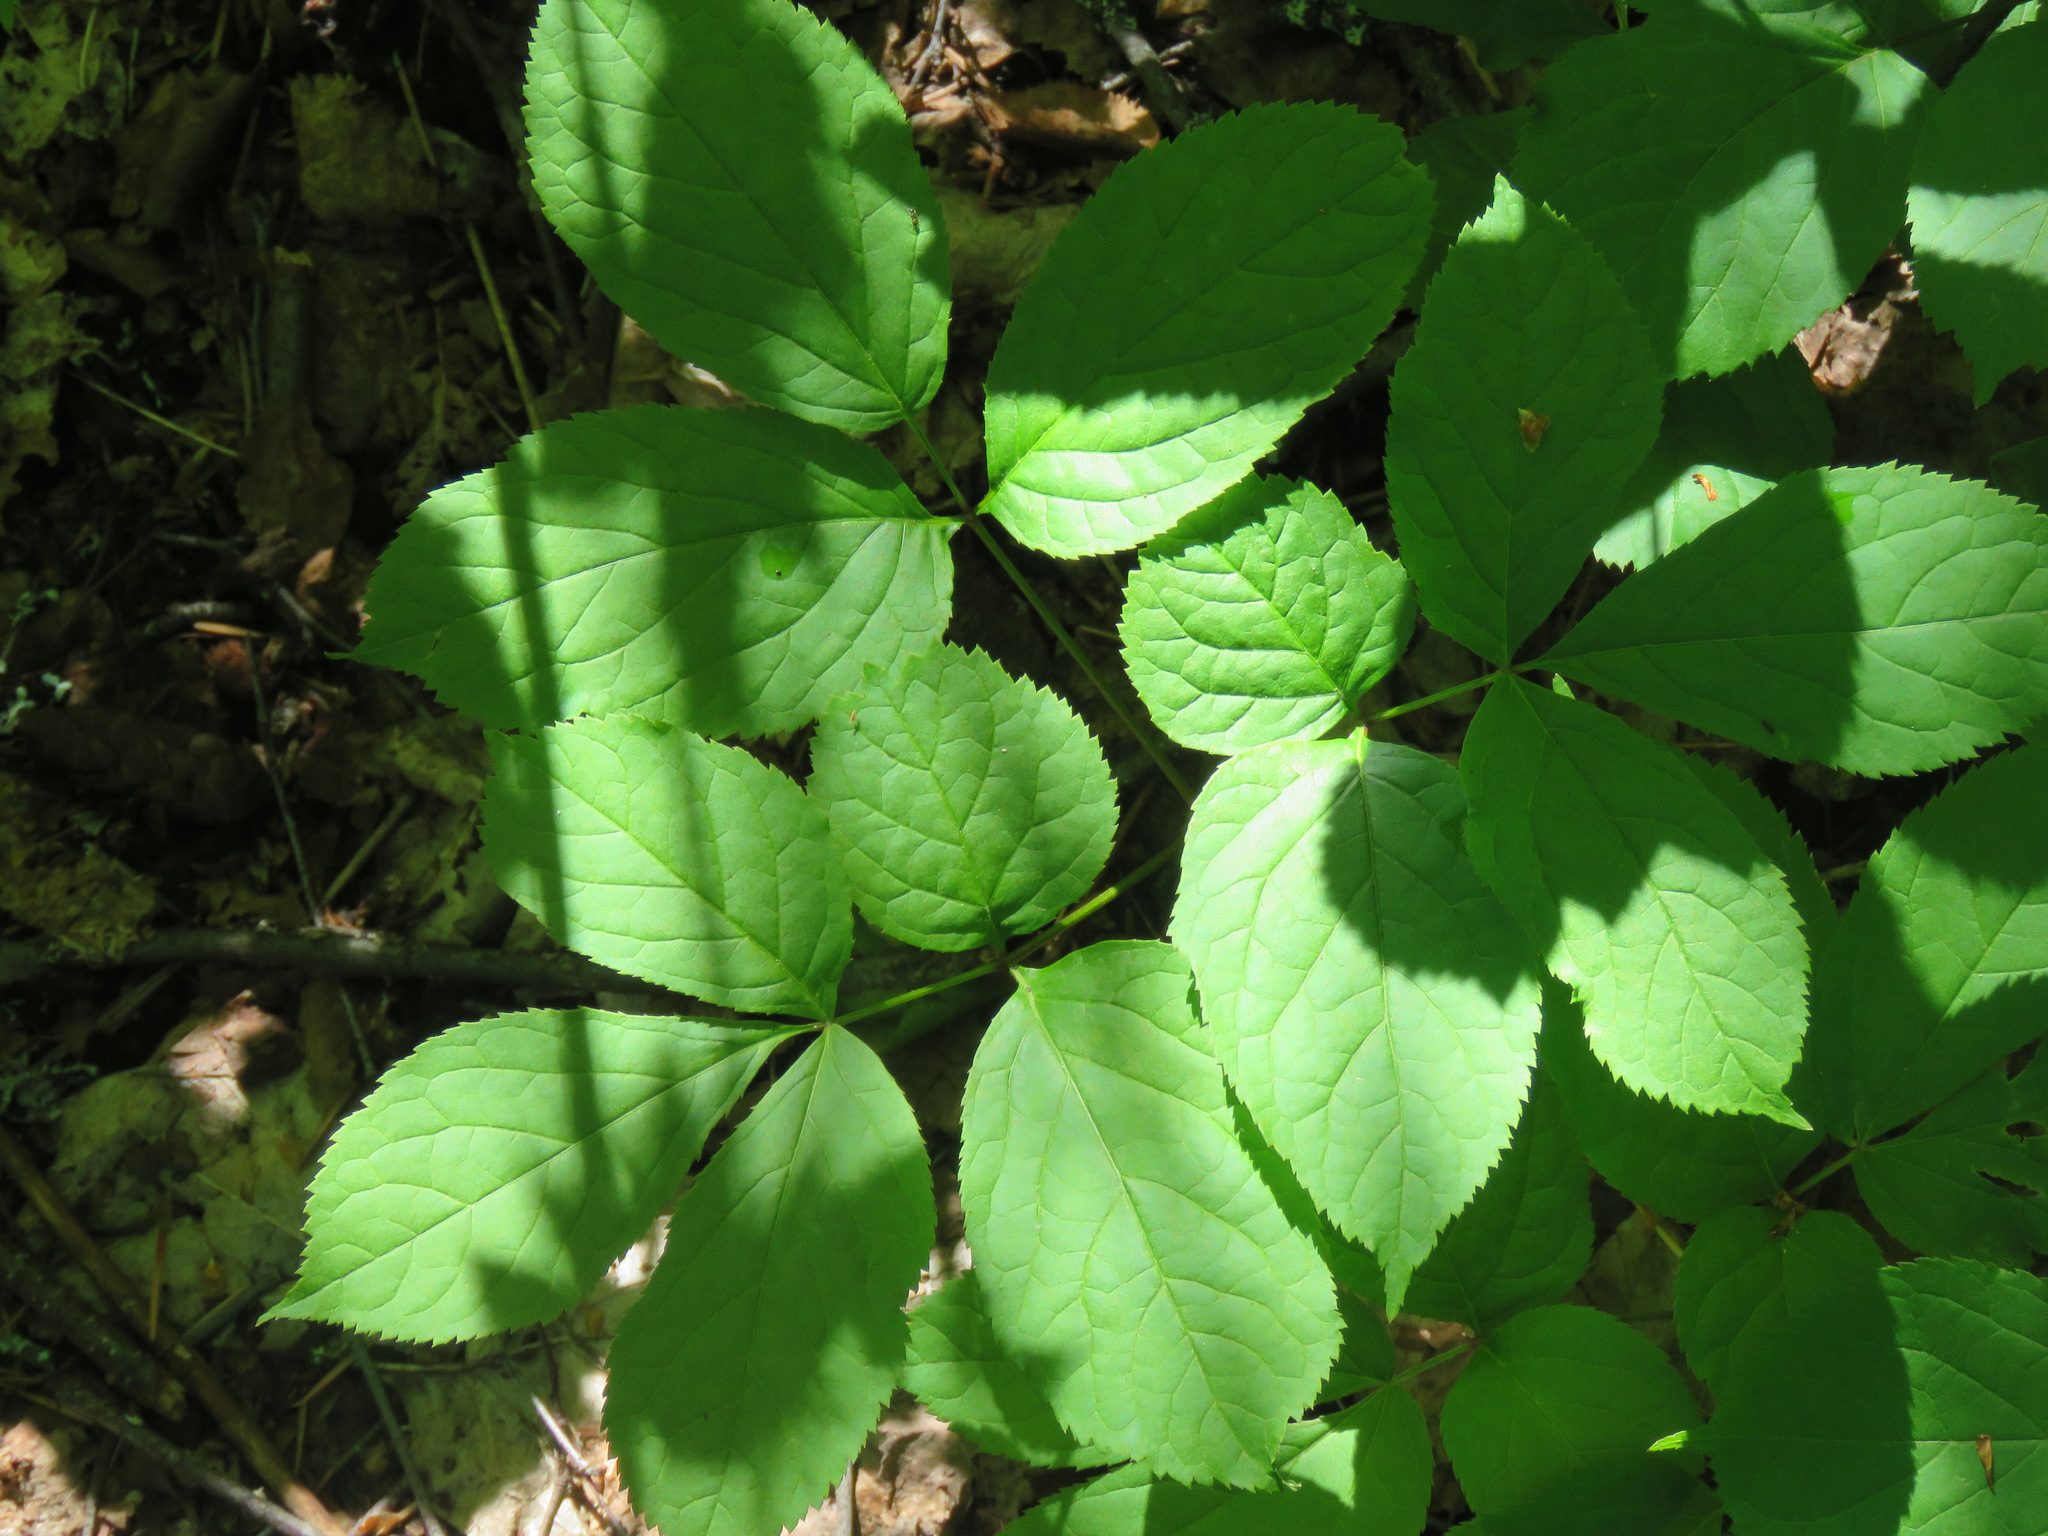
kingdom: Plantae
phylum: Tracheophyta
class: Magnoliopsida
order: Apiales
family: Araliaceae
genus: Aralia
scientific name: Aralia nudicaulis
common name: Wild sarsaparilla
